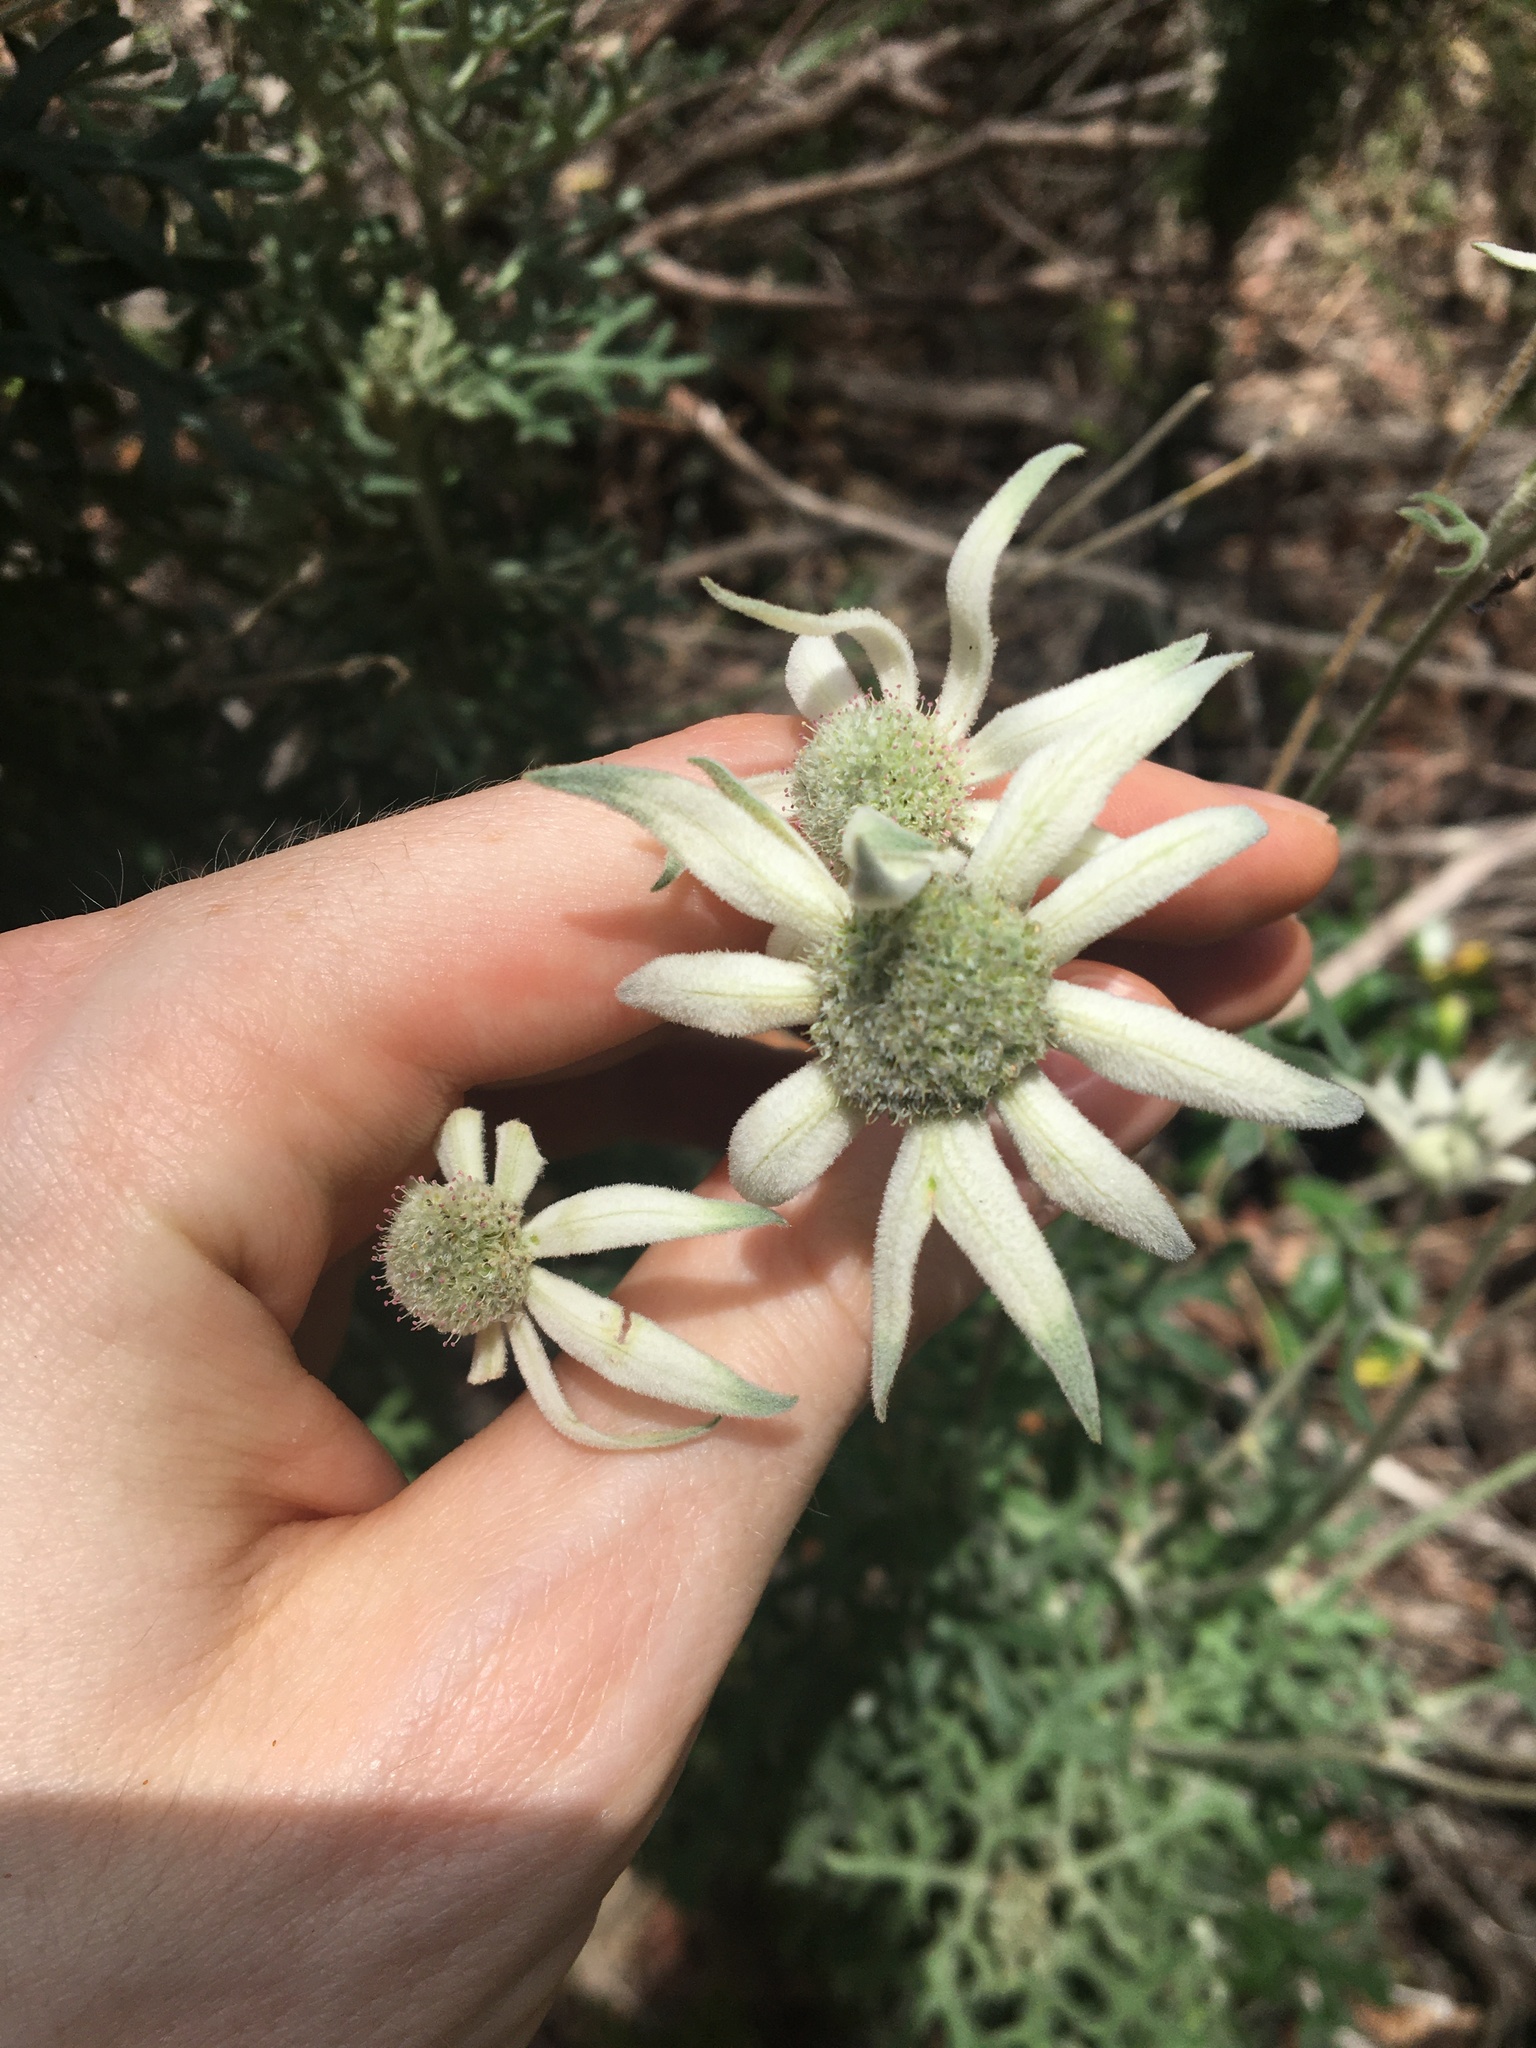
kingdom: Plantae
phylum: Tracheophyta
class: Magnoliopsida
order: Apiales
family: Apiaceae
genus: Actinotus
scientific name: Actinotus helianthi
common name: Flannel-flower
